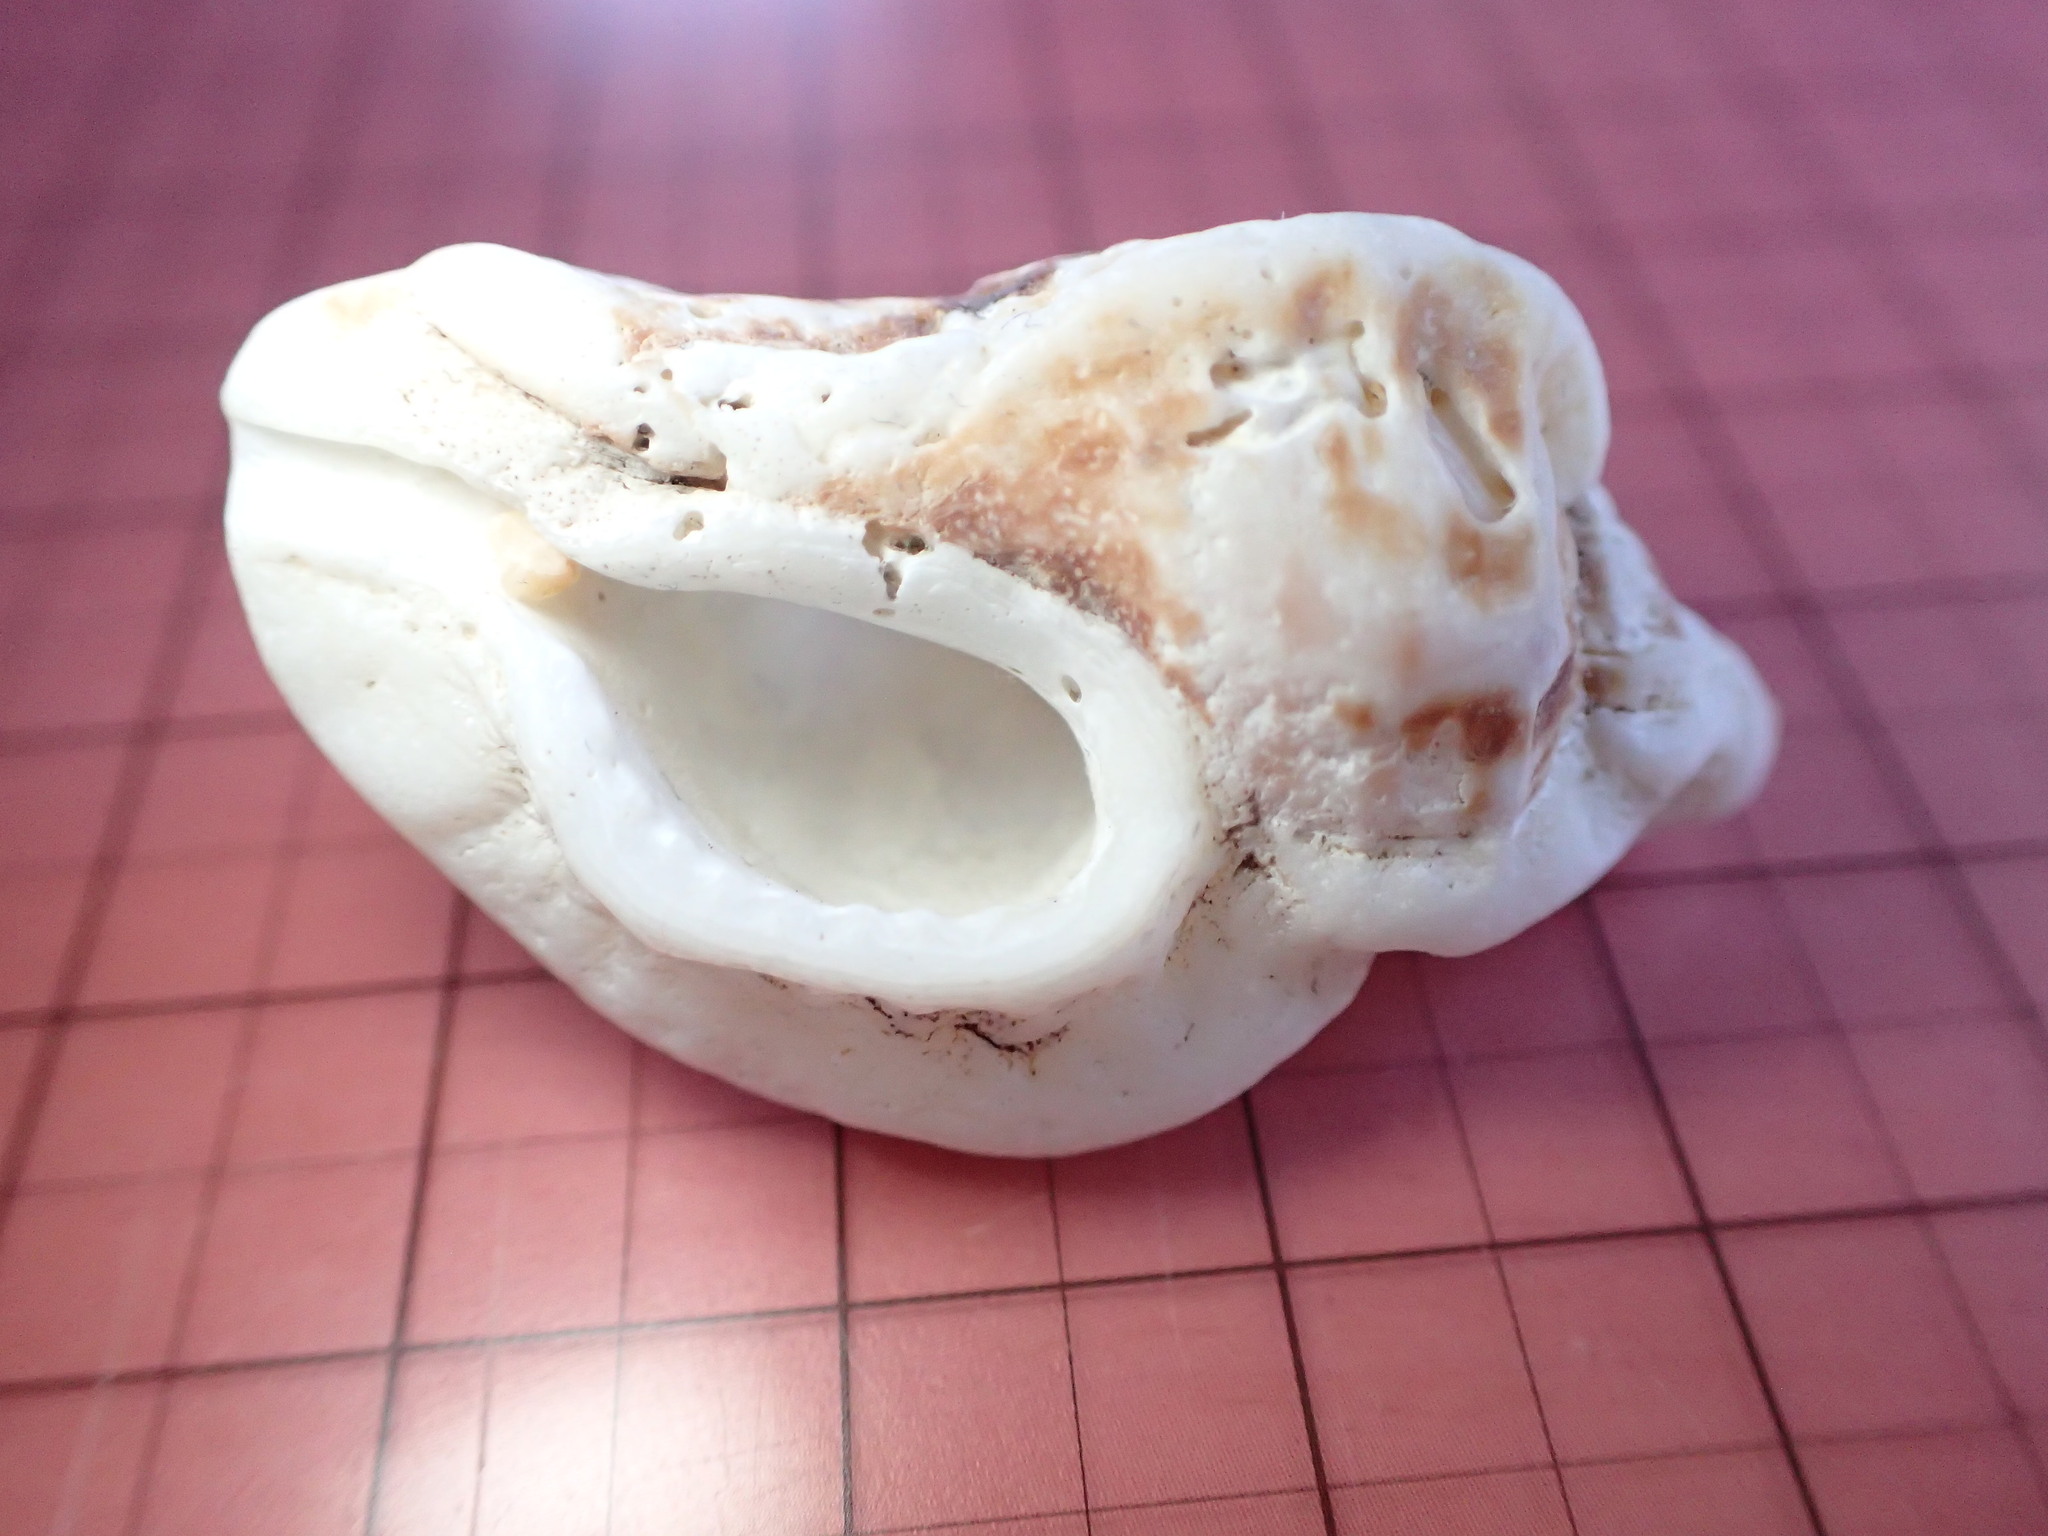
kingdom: Animalia
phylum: Mollusca
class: Gastropoda
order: Neogastropoda
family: Muricidae
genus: Ceratostoma
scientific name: Ceratostoma foliatum
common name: Foliate thorn purpura
